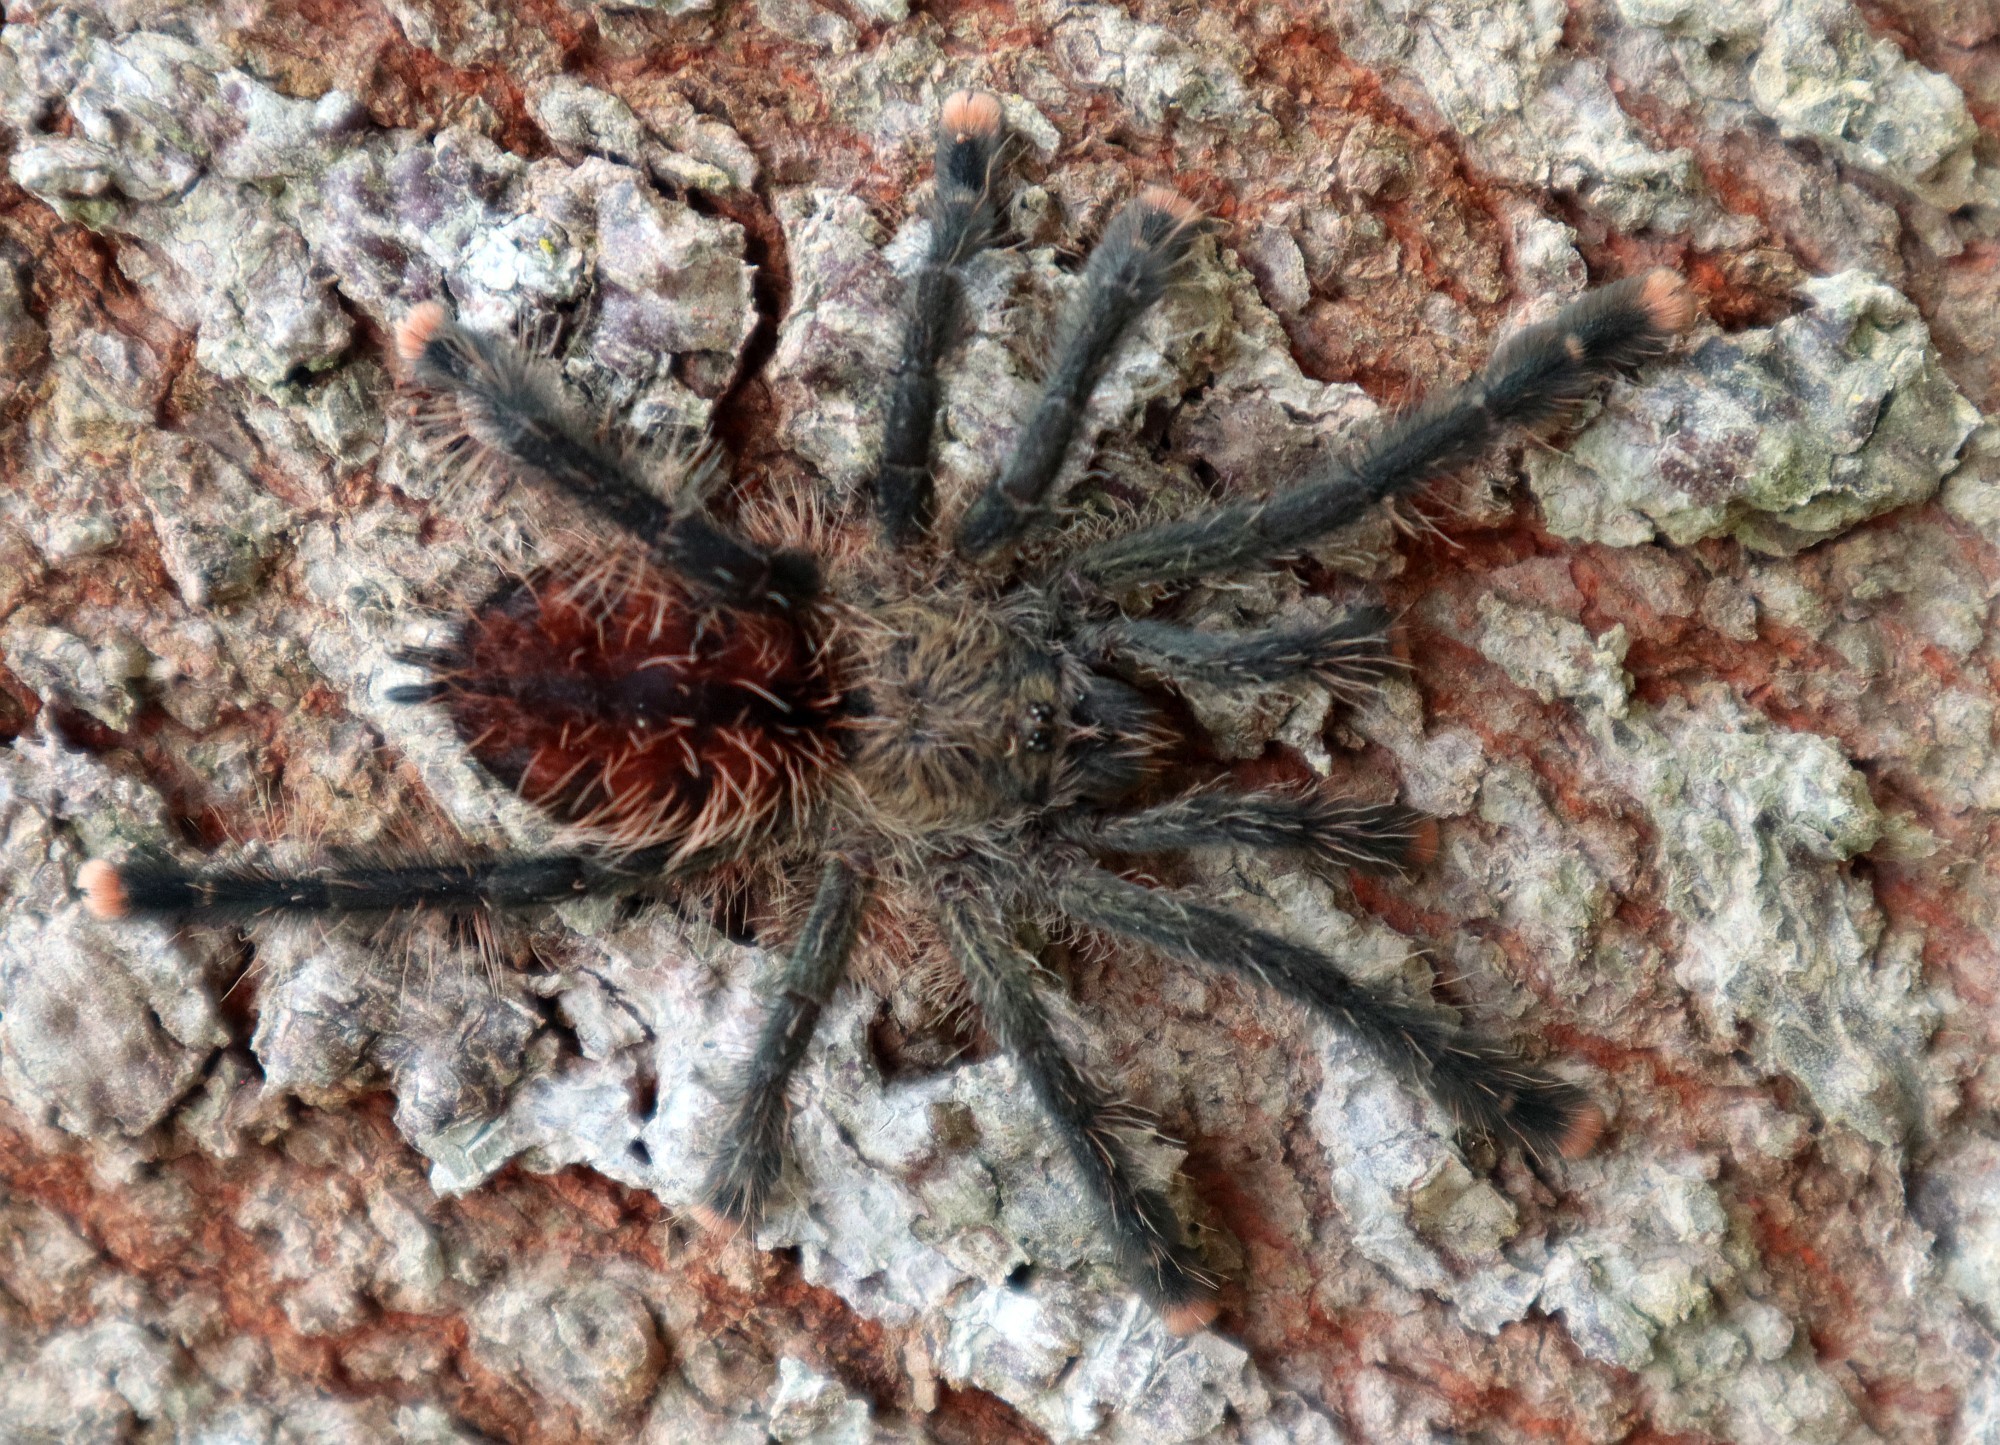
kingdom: Animalia
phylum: Arthropoda
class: Arachnida
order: Araneae
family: Theraphosidae
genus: Avicularia
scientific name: Avicularia juruensis
